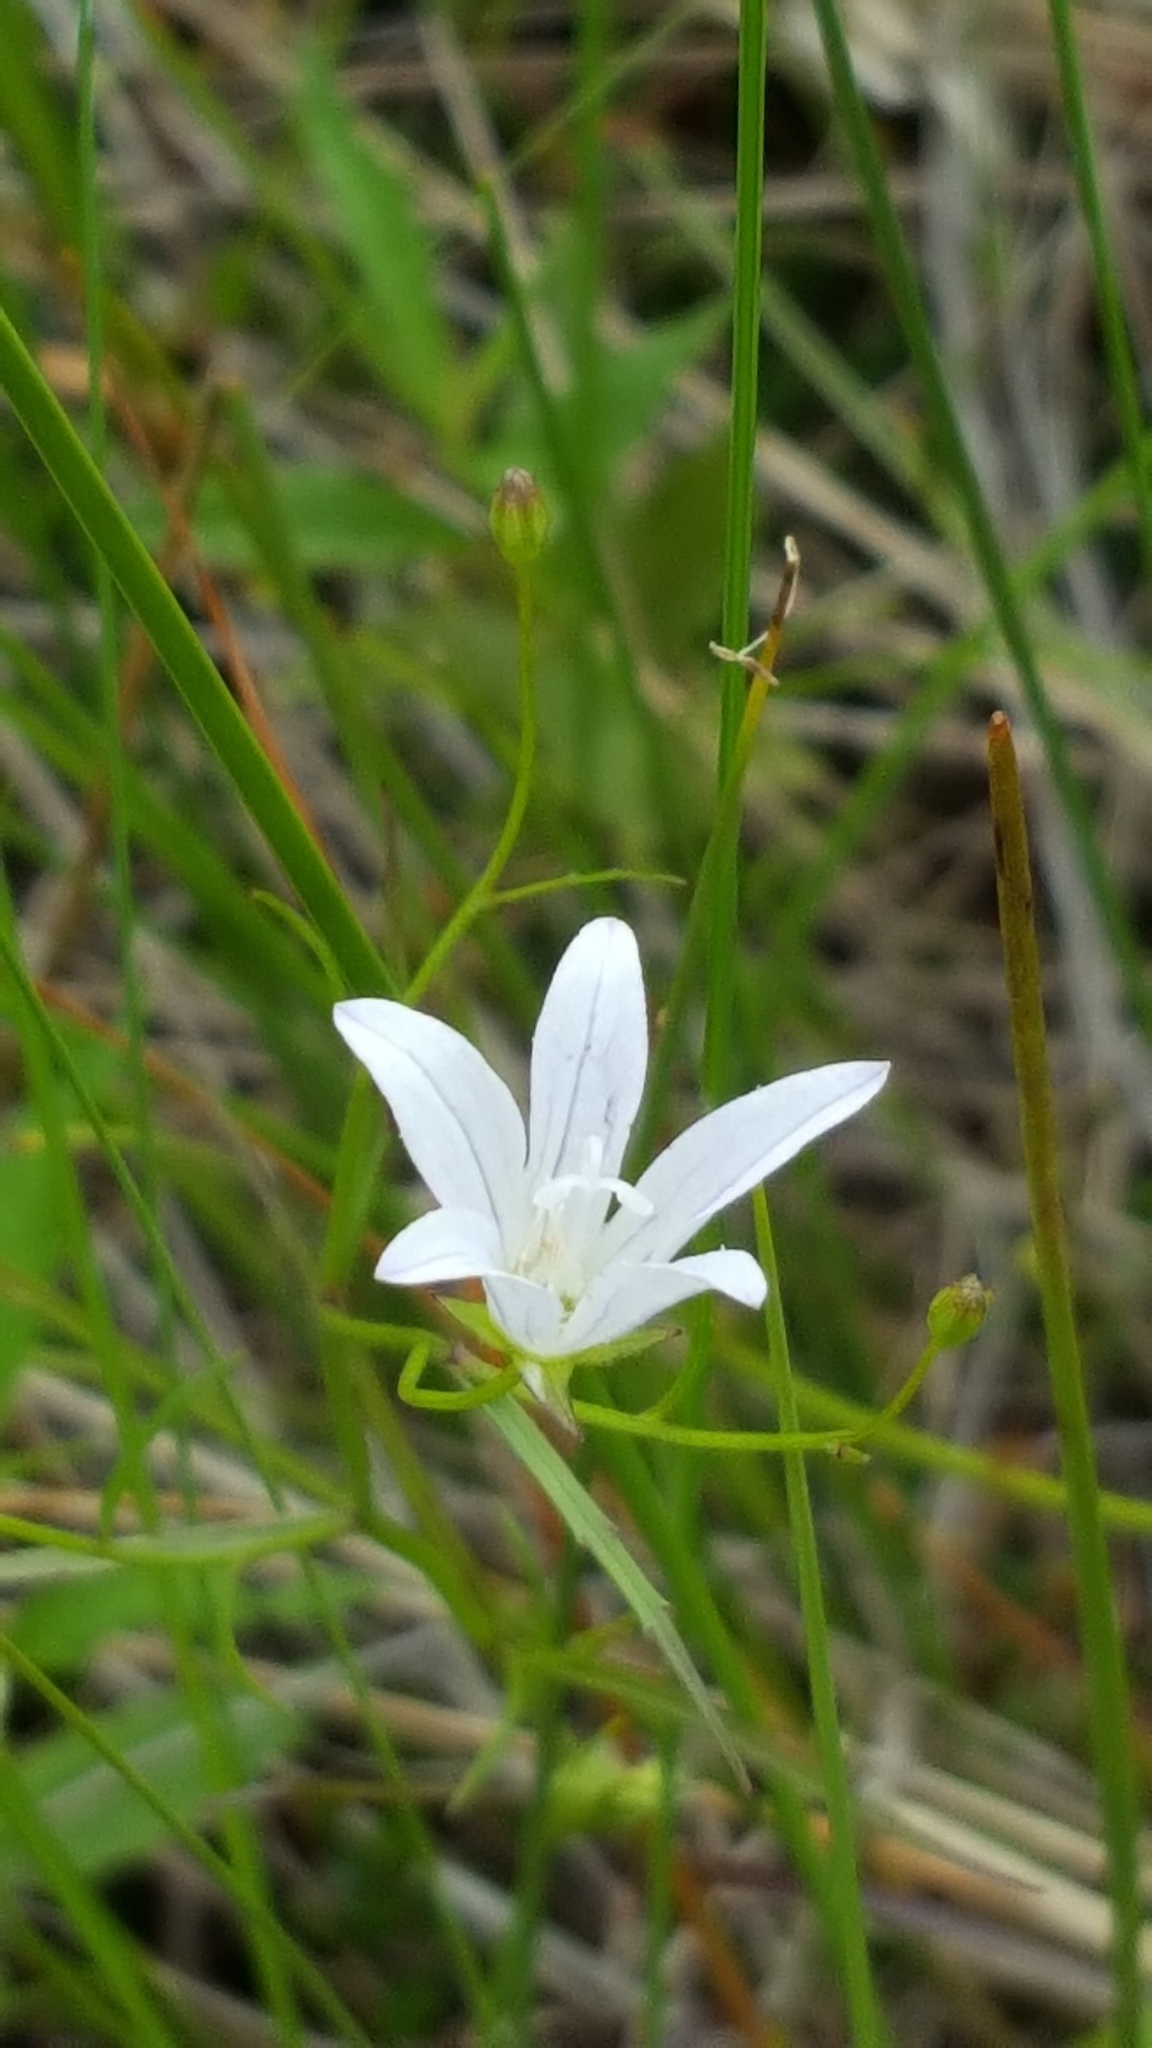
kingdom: Plantae
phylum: Tracheophyta
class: Magnoliopsida
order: Asterales
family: Campanulaceae
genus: Palustricodon
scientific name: Palustricodon aparinoides
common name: Bedstraw bellflower
